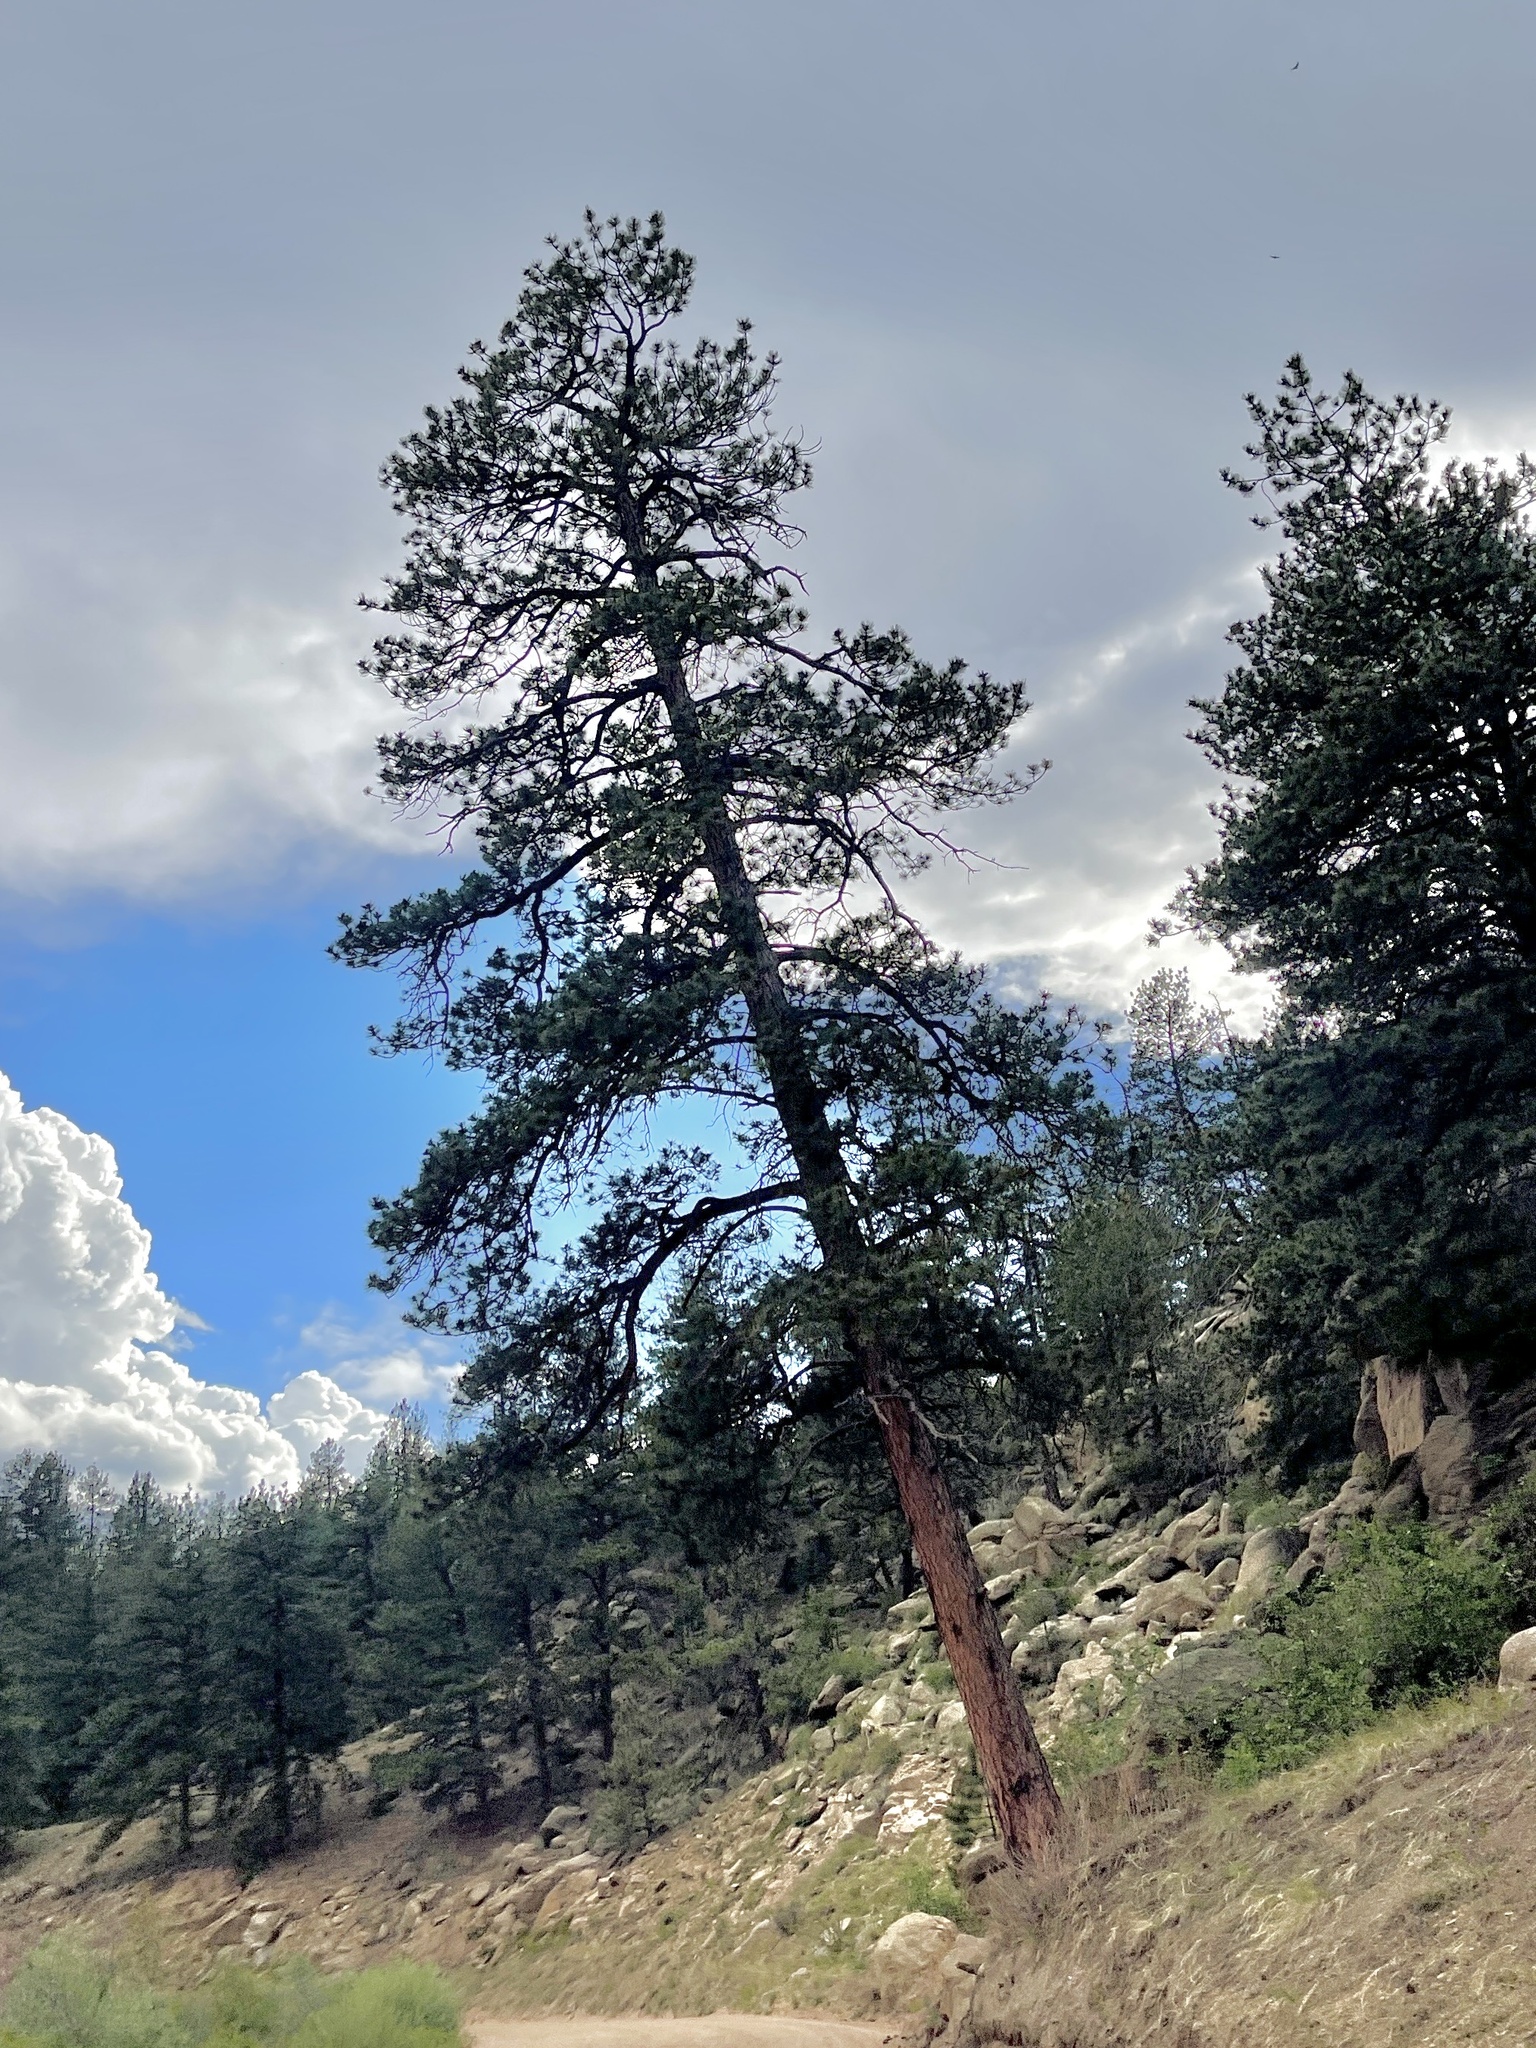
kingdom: Plantae
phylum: Tracheophyta
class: Pinopsida
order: Pinales
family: Pinaceae
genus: Pinus
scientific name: Pinus ponderosa
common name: Western yellow-pine
